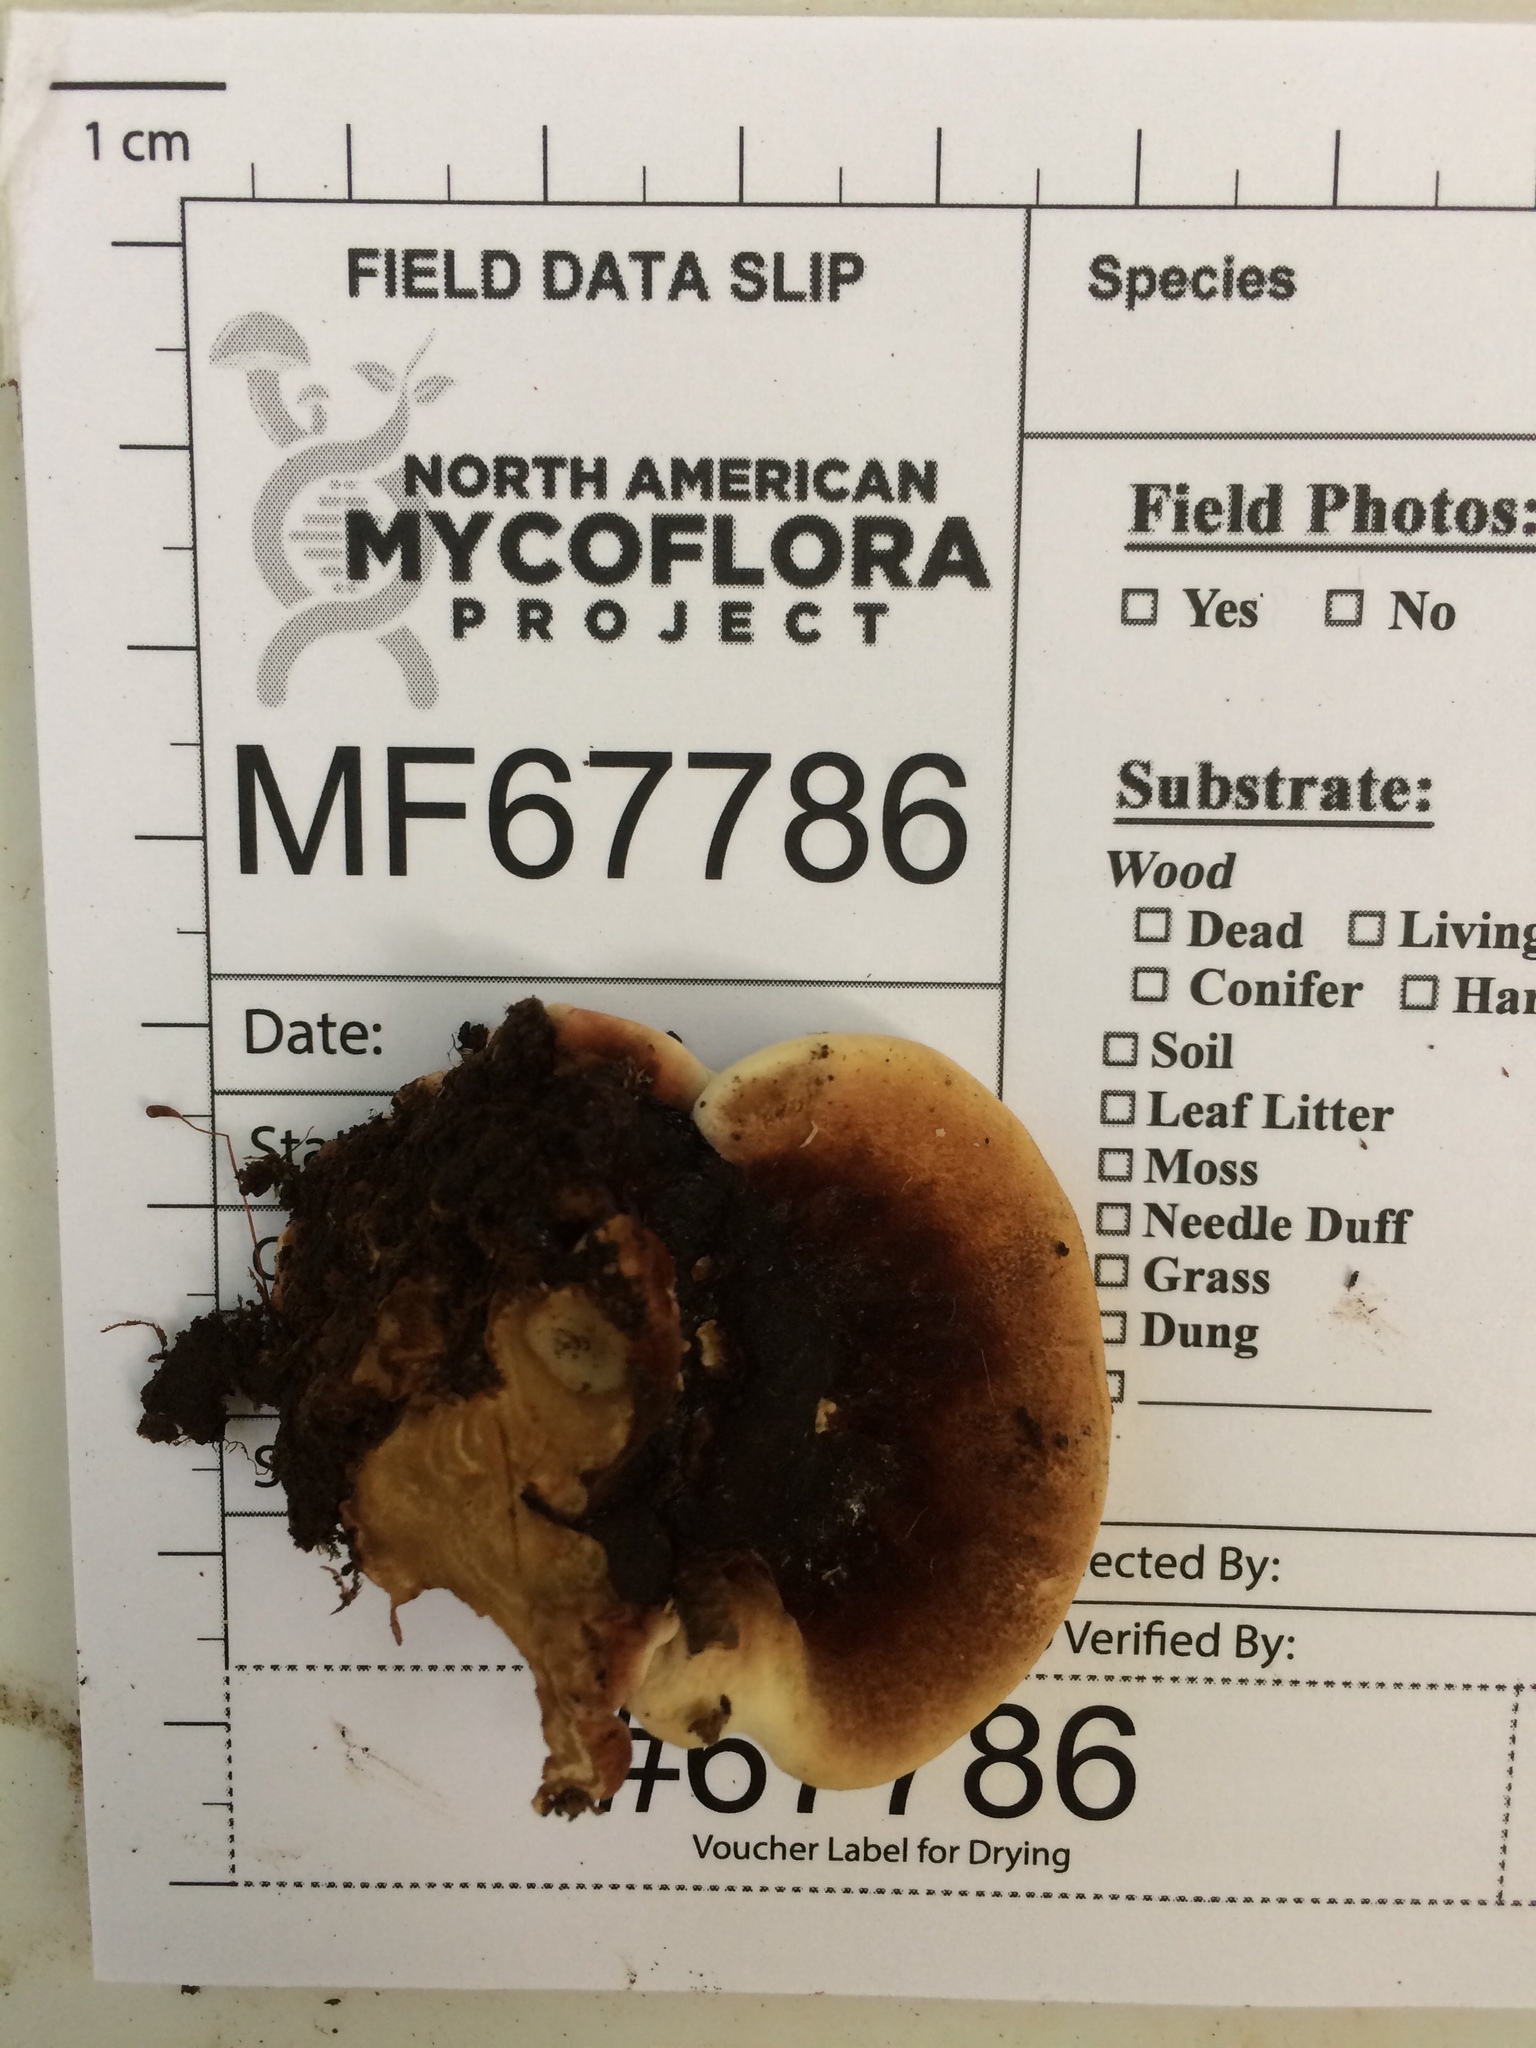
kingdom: Fungi
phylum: Basidiomycota
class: Agaricomycetes
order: Polyporales
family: Ischnodermataceae
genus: Ischnoderma
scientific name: Ischnoderma resinosum
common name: Resinous polypore
